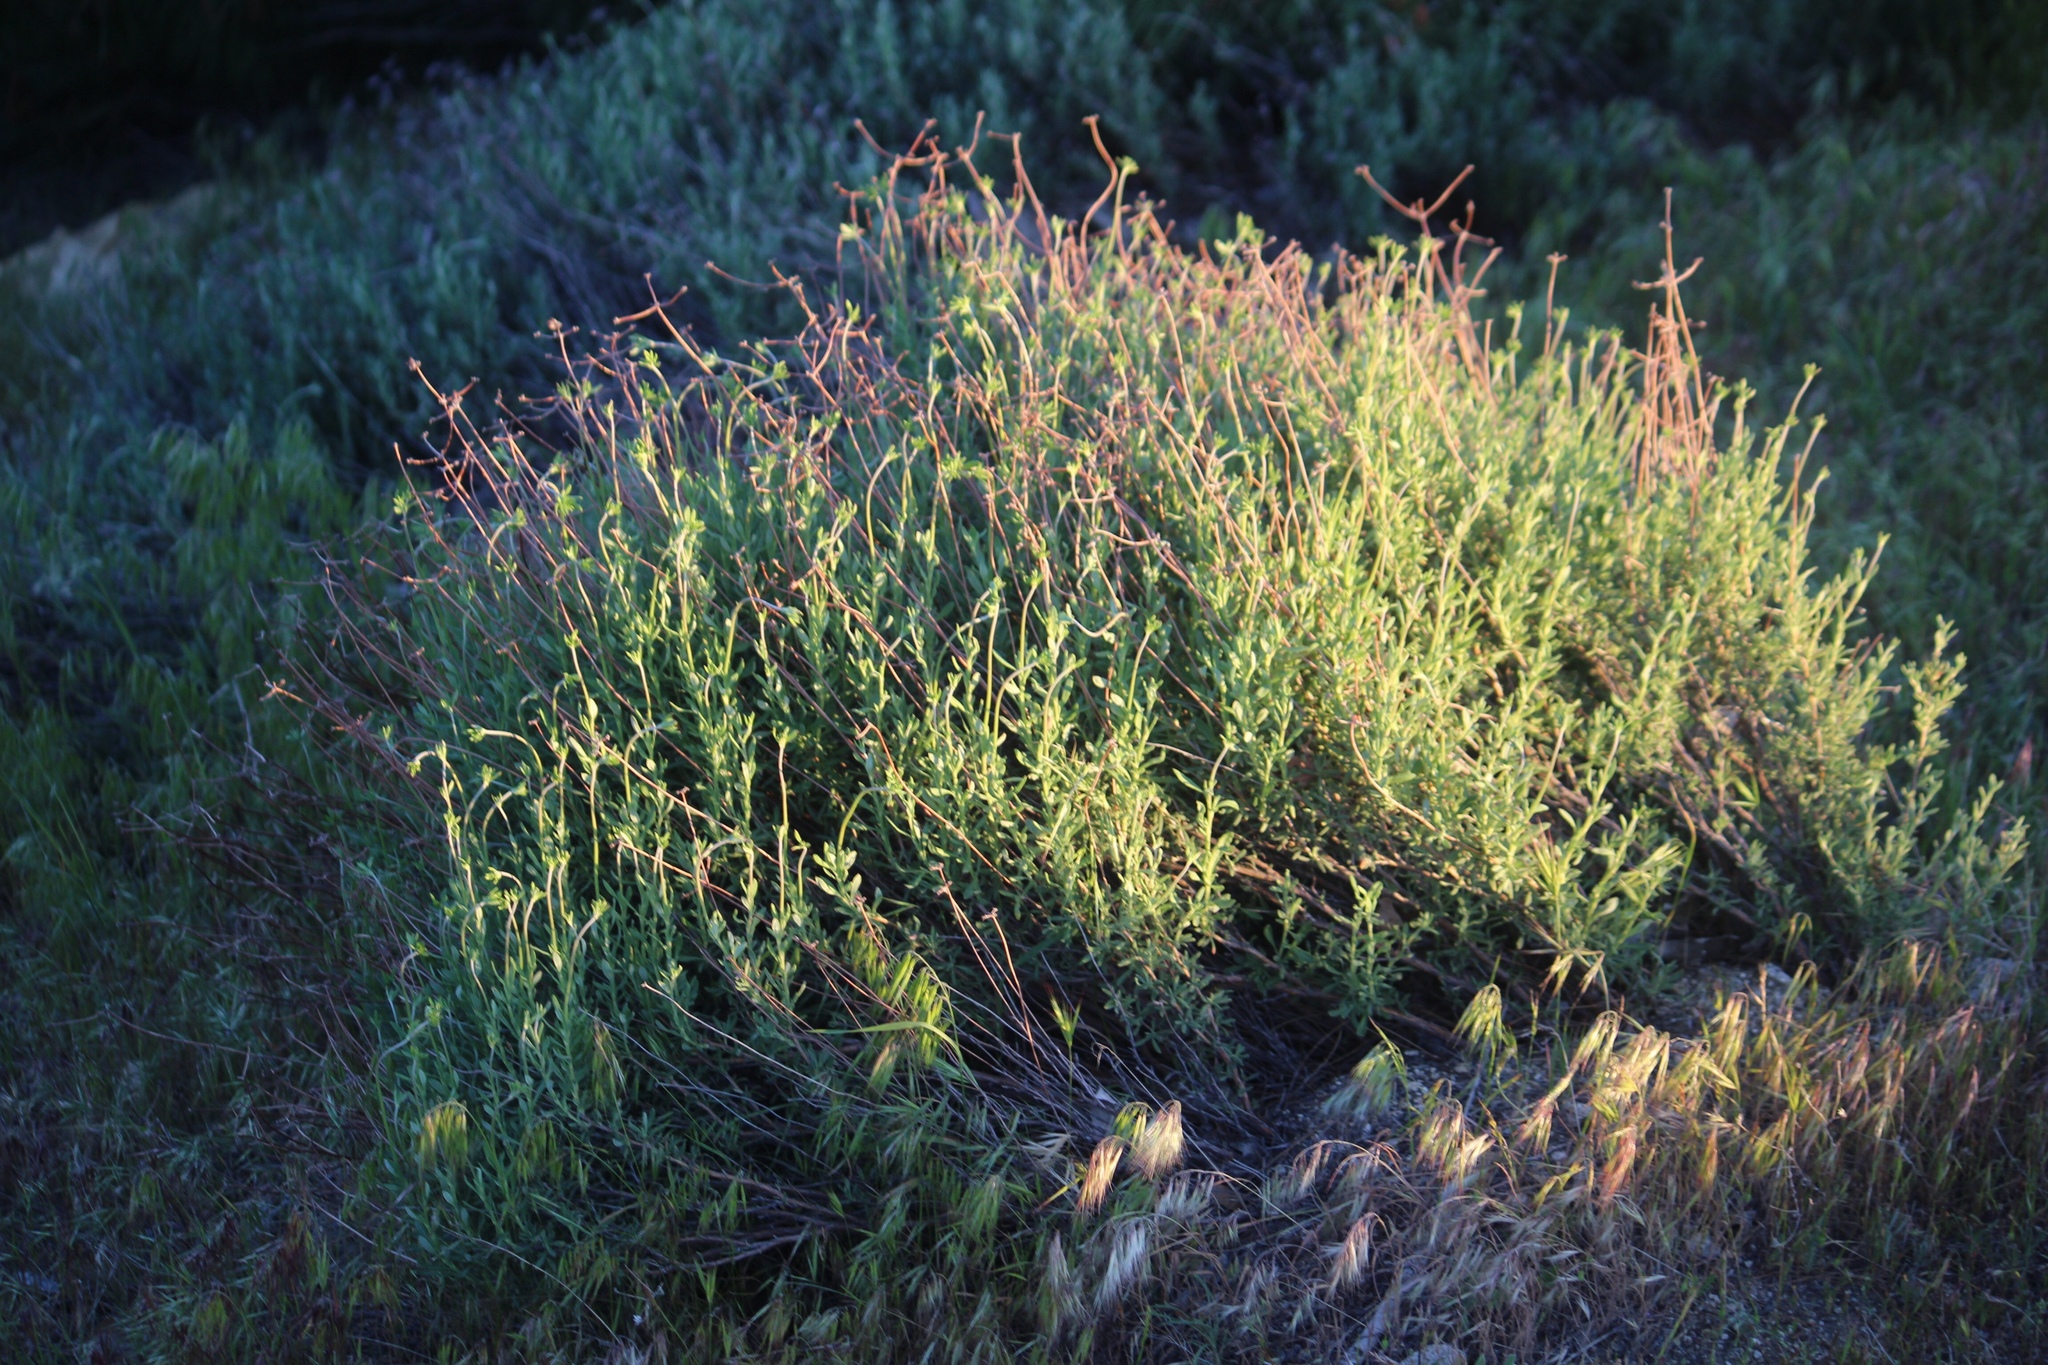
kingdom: Plantae
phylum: Tracheophyta
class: Magnoliopsida
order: Caryophyllales
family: Polygonaceae
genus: Eriogonum
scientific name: Eriogonum fasciculatum
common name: California wild buckwheat
